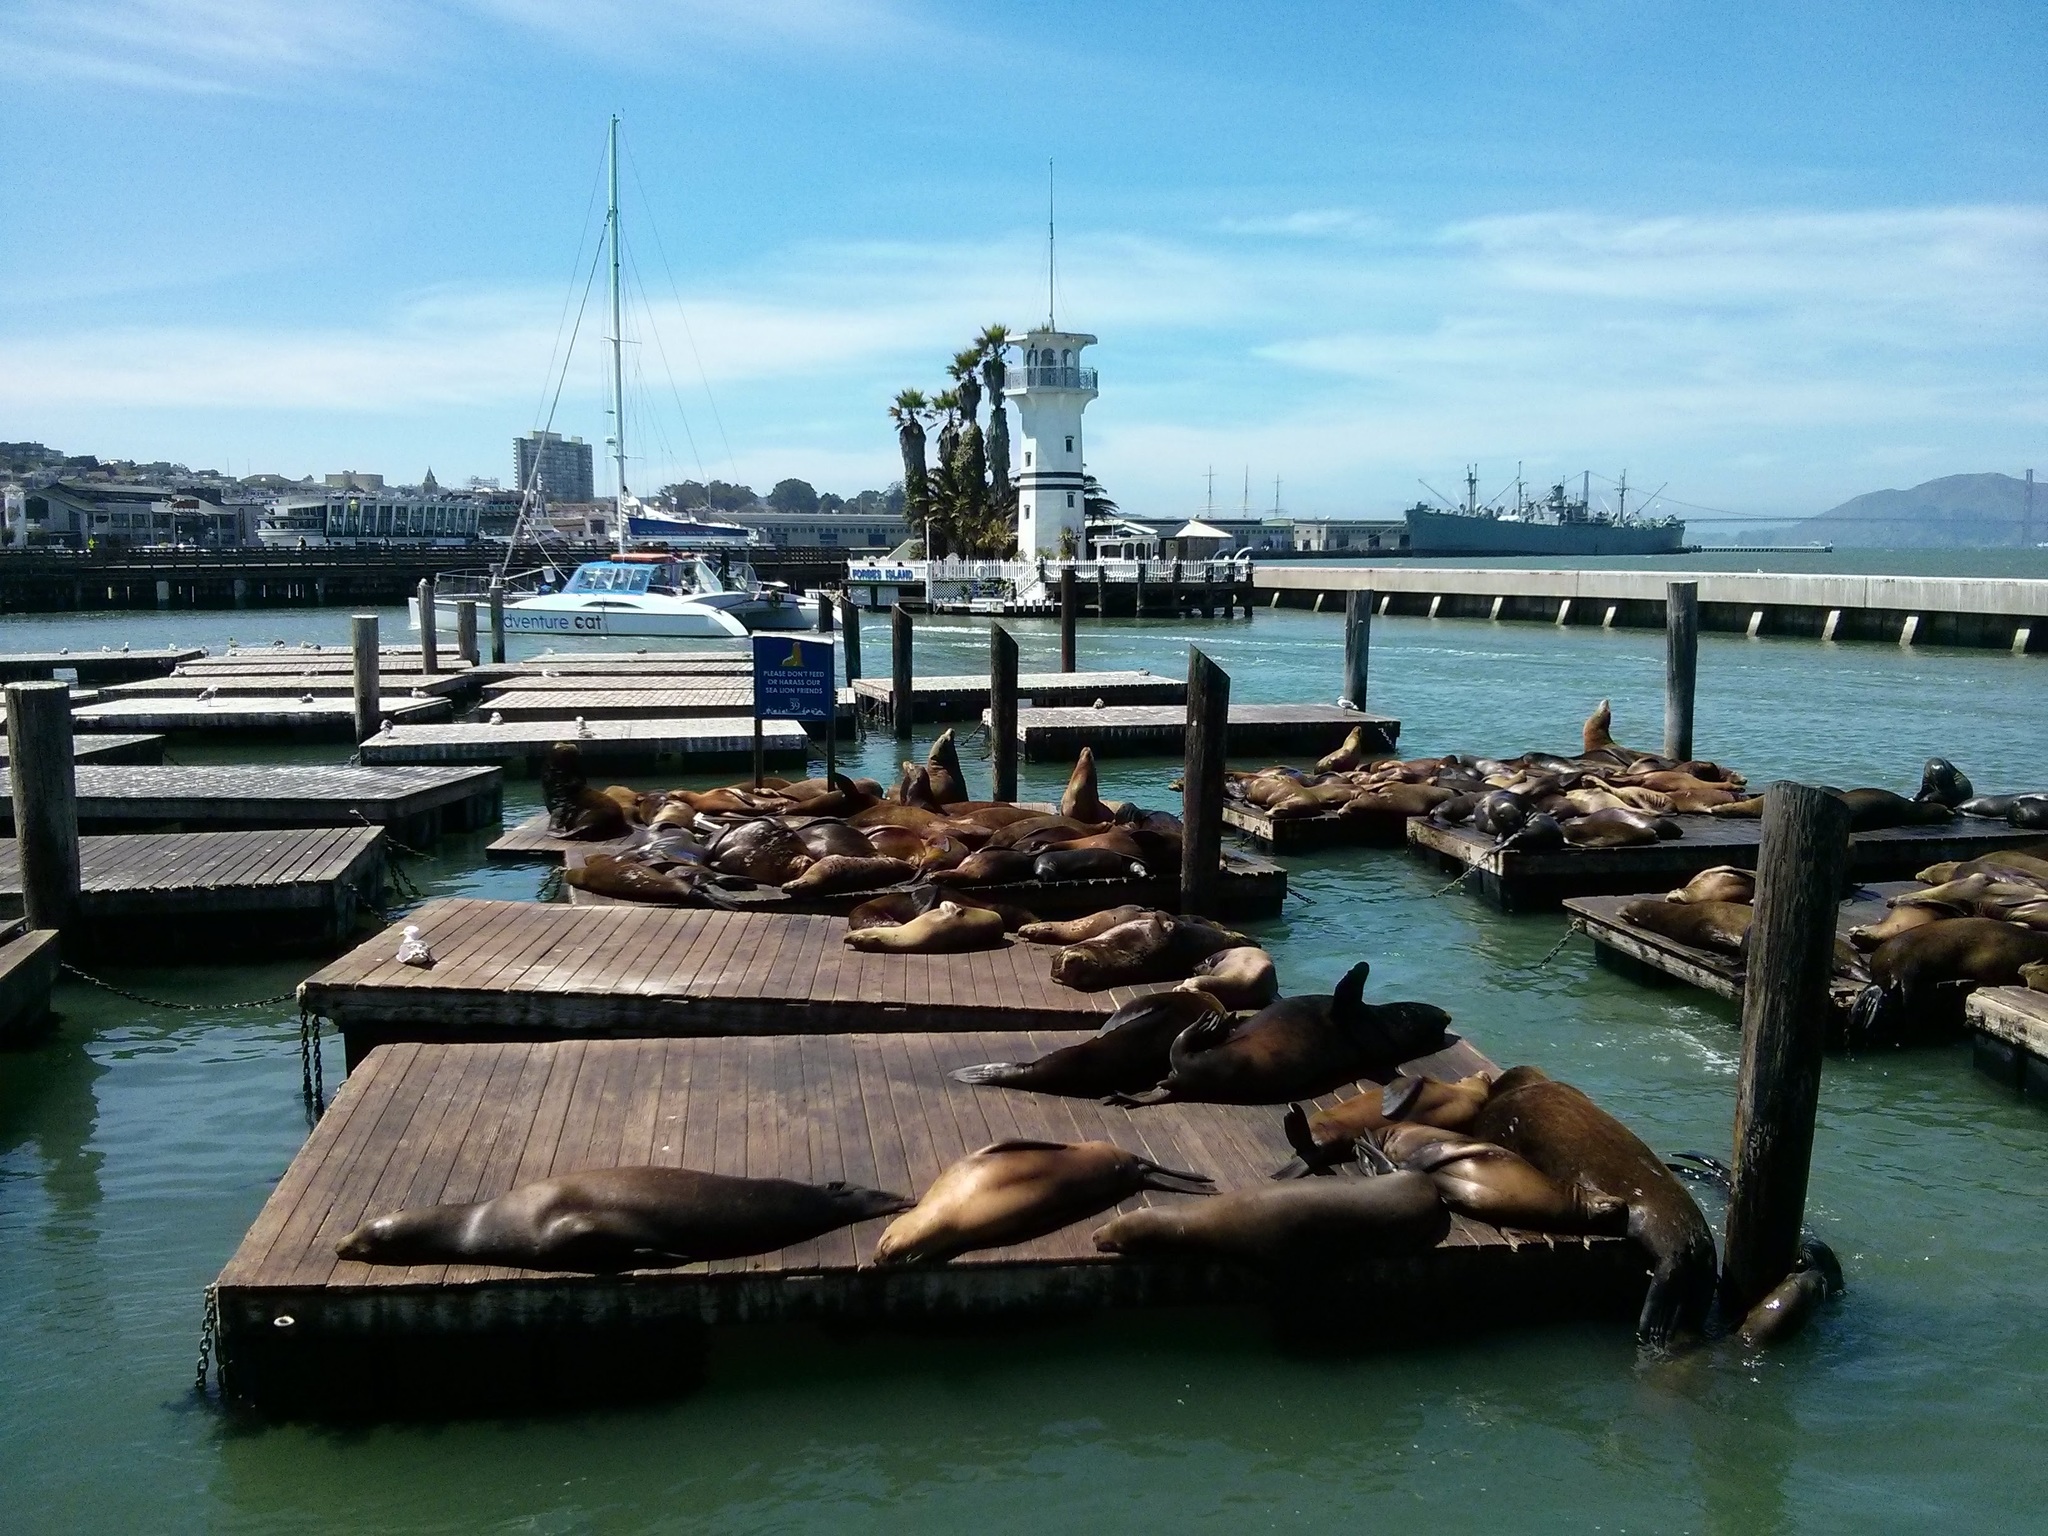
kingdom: Animalia
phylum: Chordata
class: Mammalia
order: Carnivora
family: Otariidae
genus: Zalophus
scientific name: Zalophus californianus
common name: California sea lion
